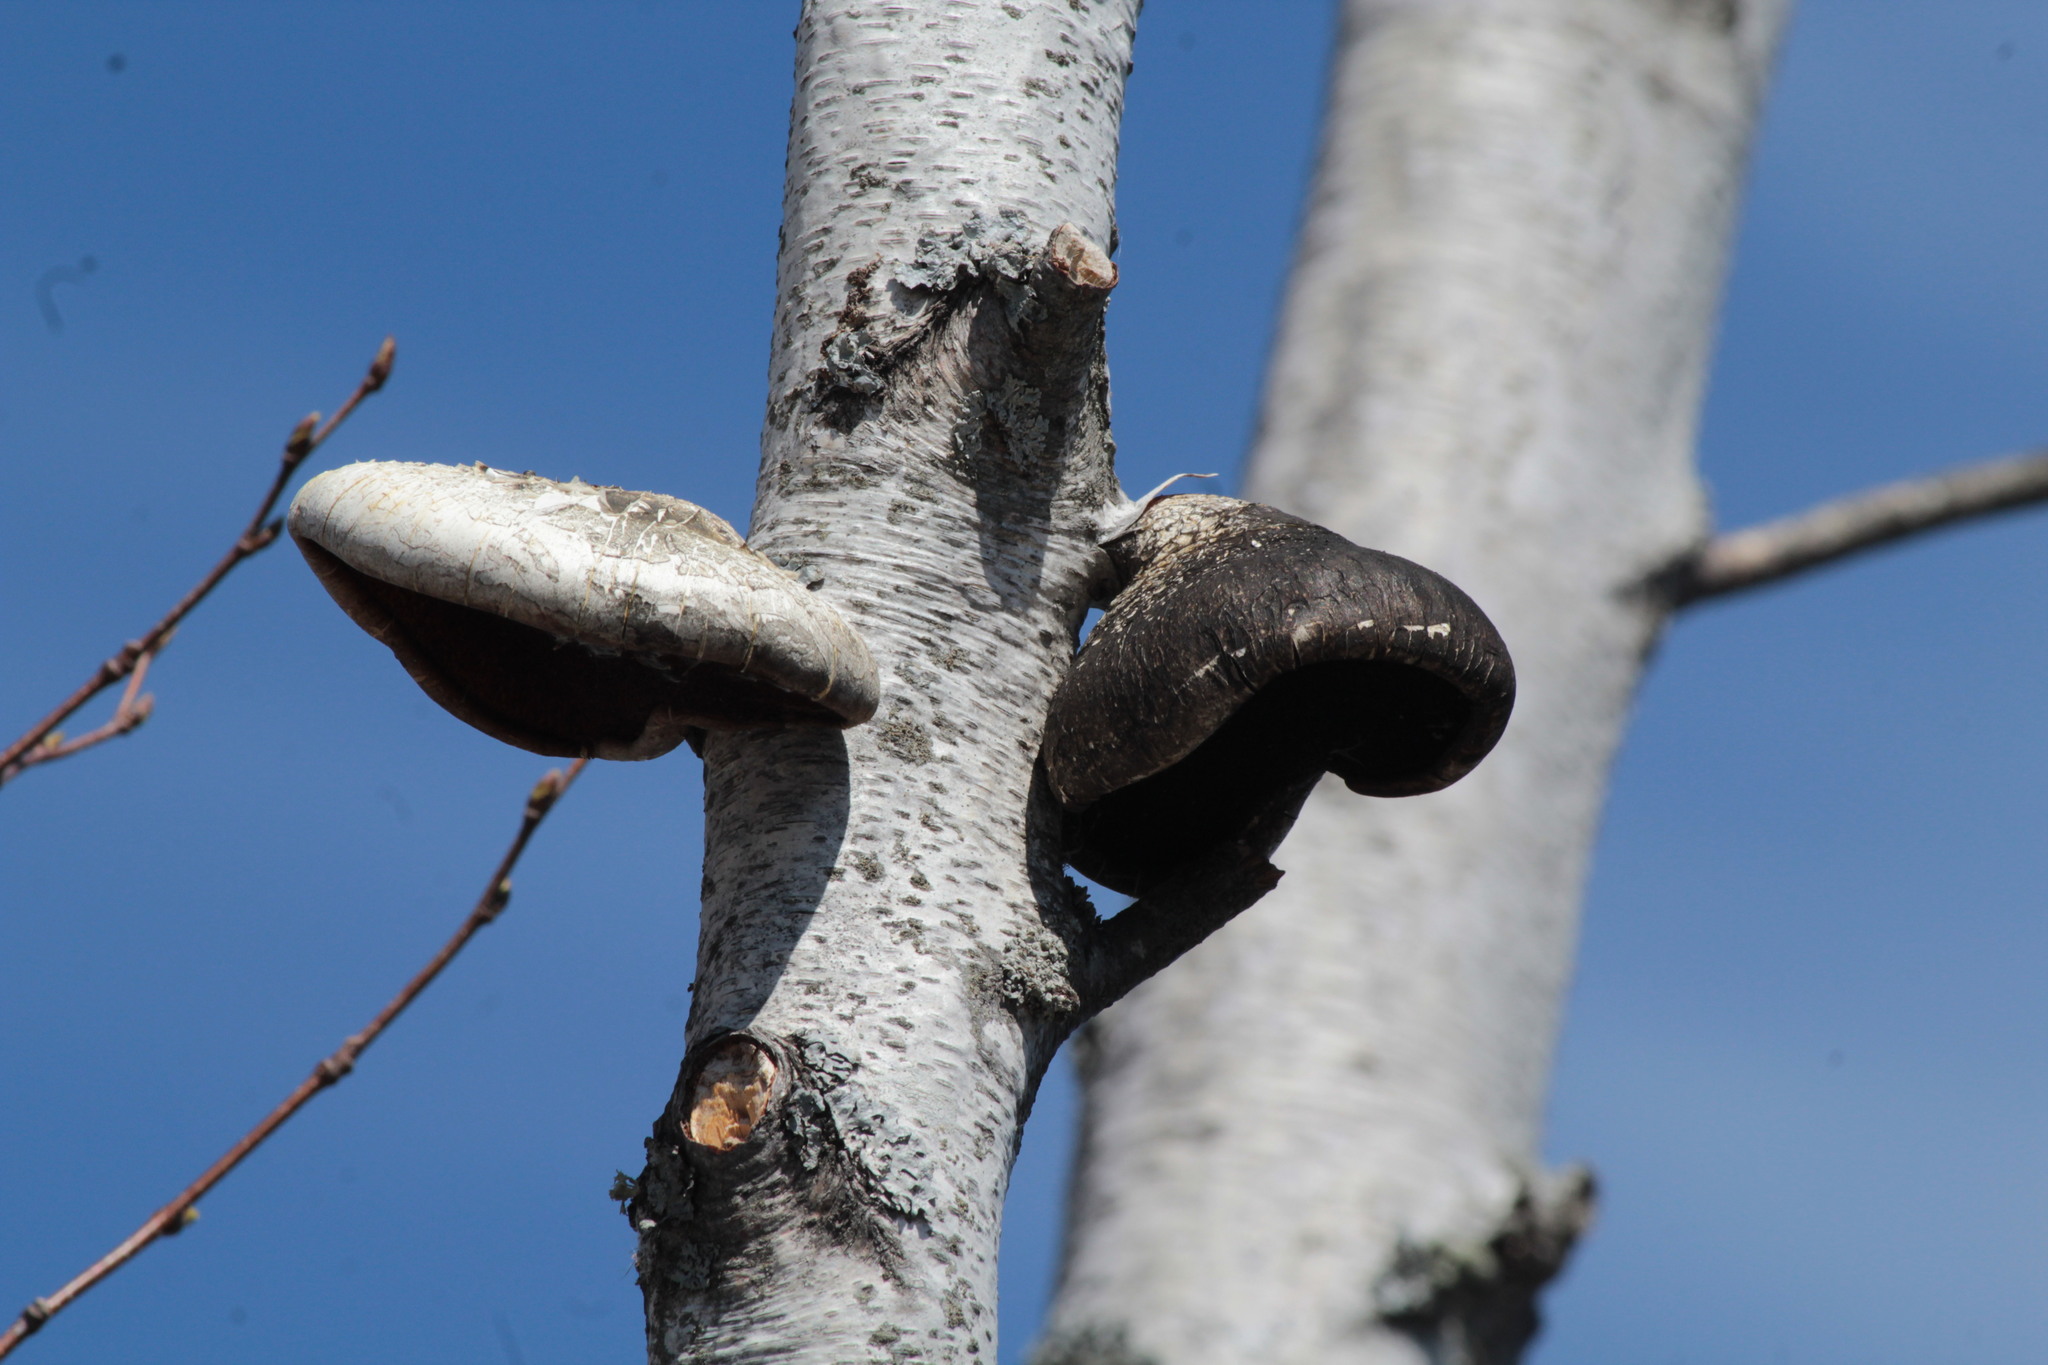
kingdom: Fungi
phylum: Basidiomycota
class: Agaricomycetes
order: Polyporales
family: Fomitopsidaceae
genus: Fomitopsis
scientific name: Fomitopsis betulina
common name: Birch polypore
